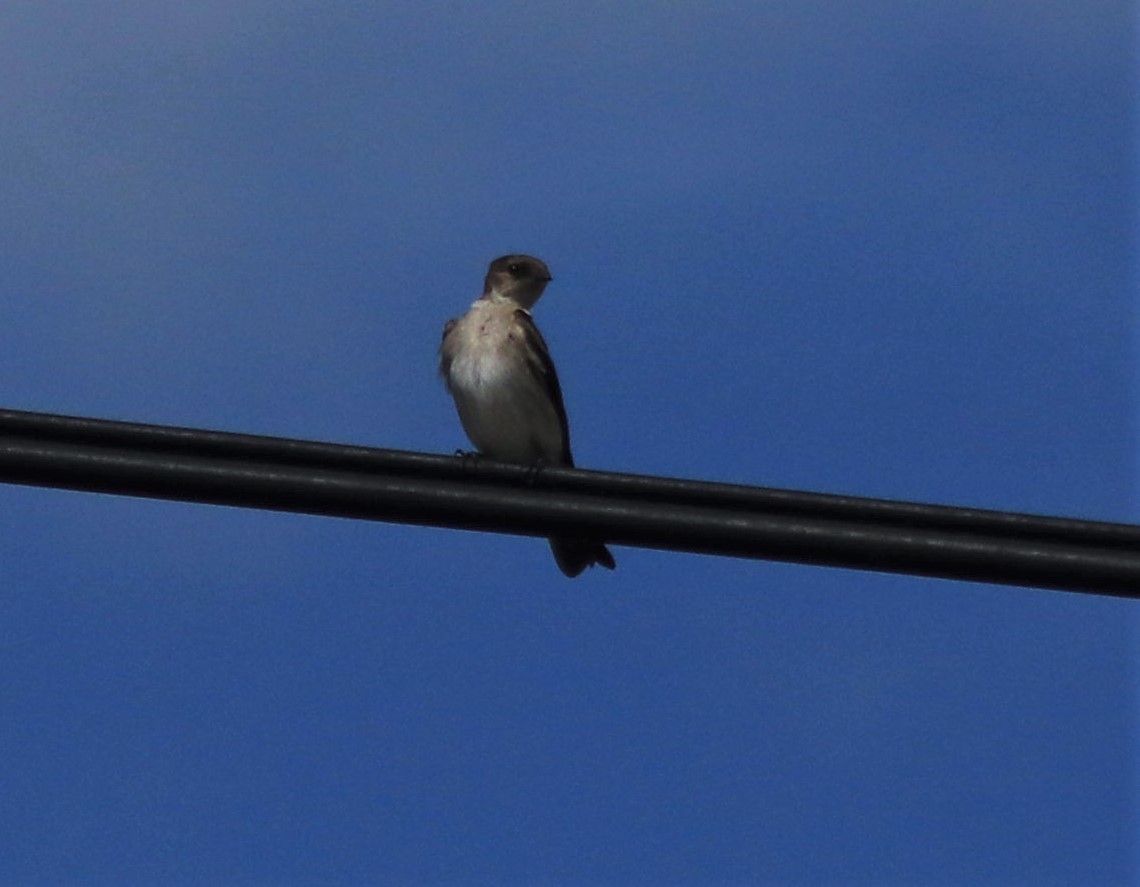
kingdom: Animalia
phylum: Chordata
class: Aves
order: Passeriformes
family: Hirundinidae
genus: Stelgidopteryx
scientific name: Stelgidopteryx serripennis
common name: Northern rough-winged swallow
